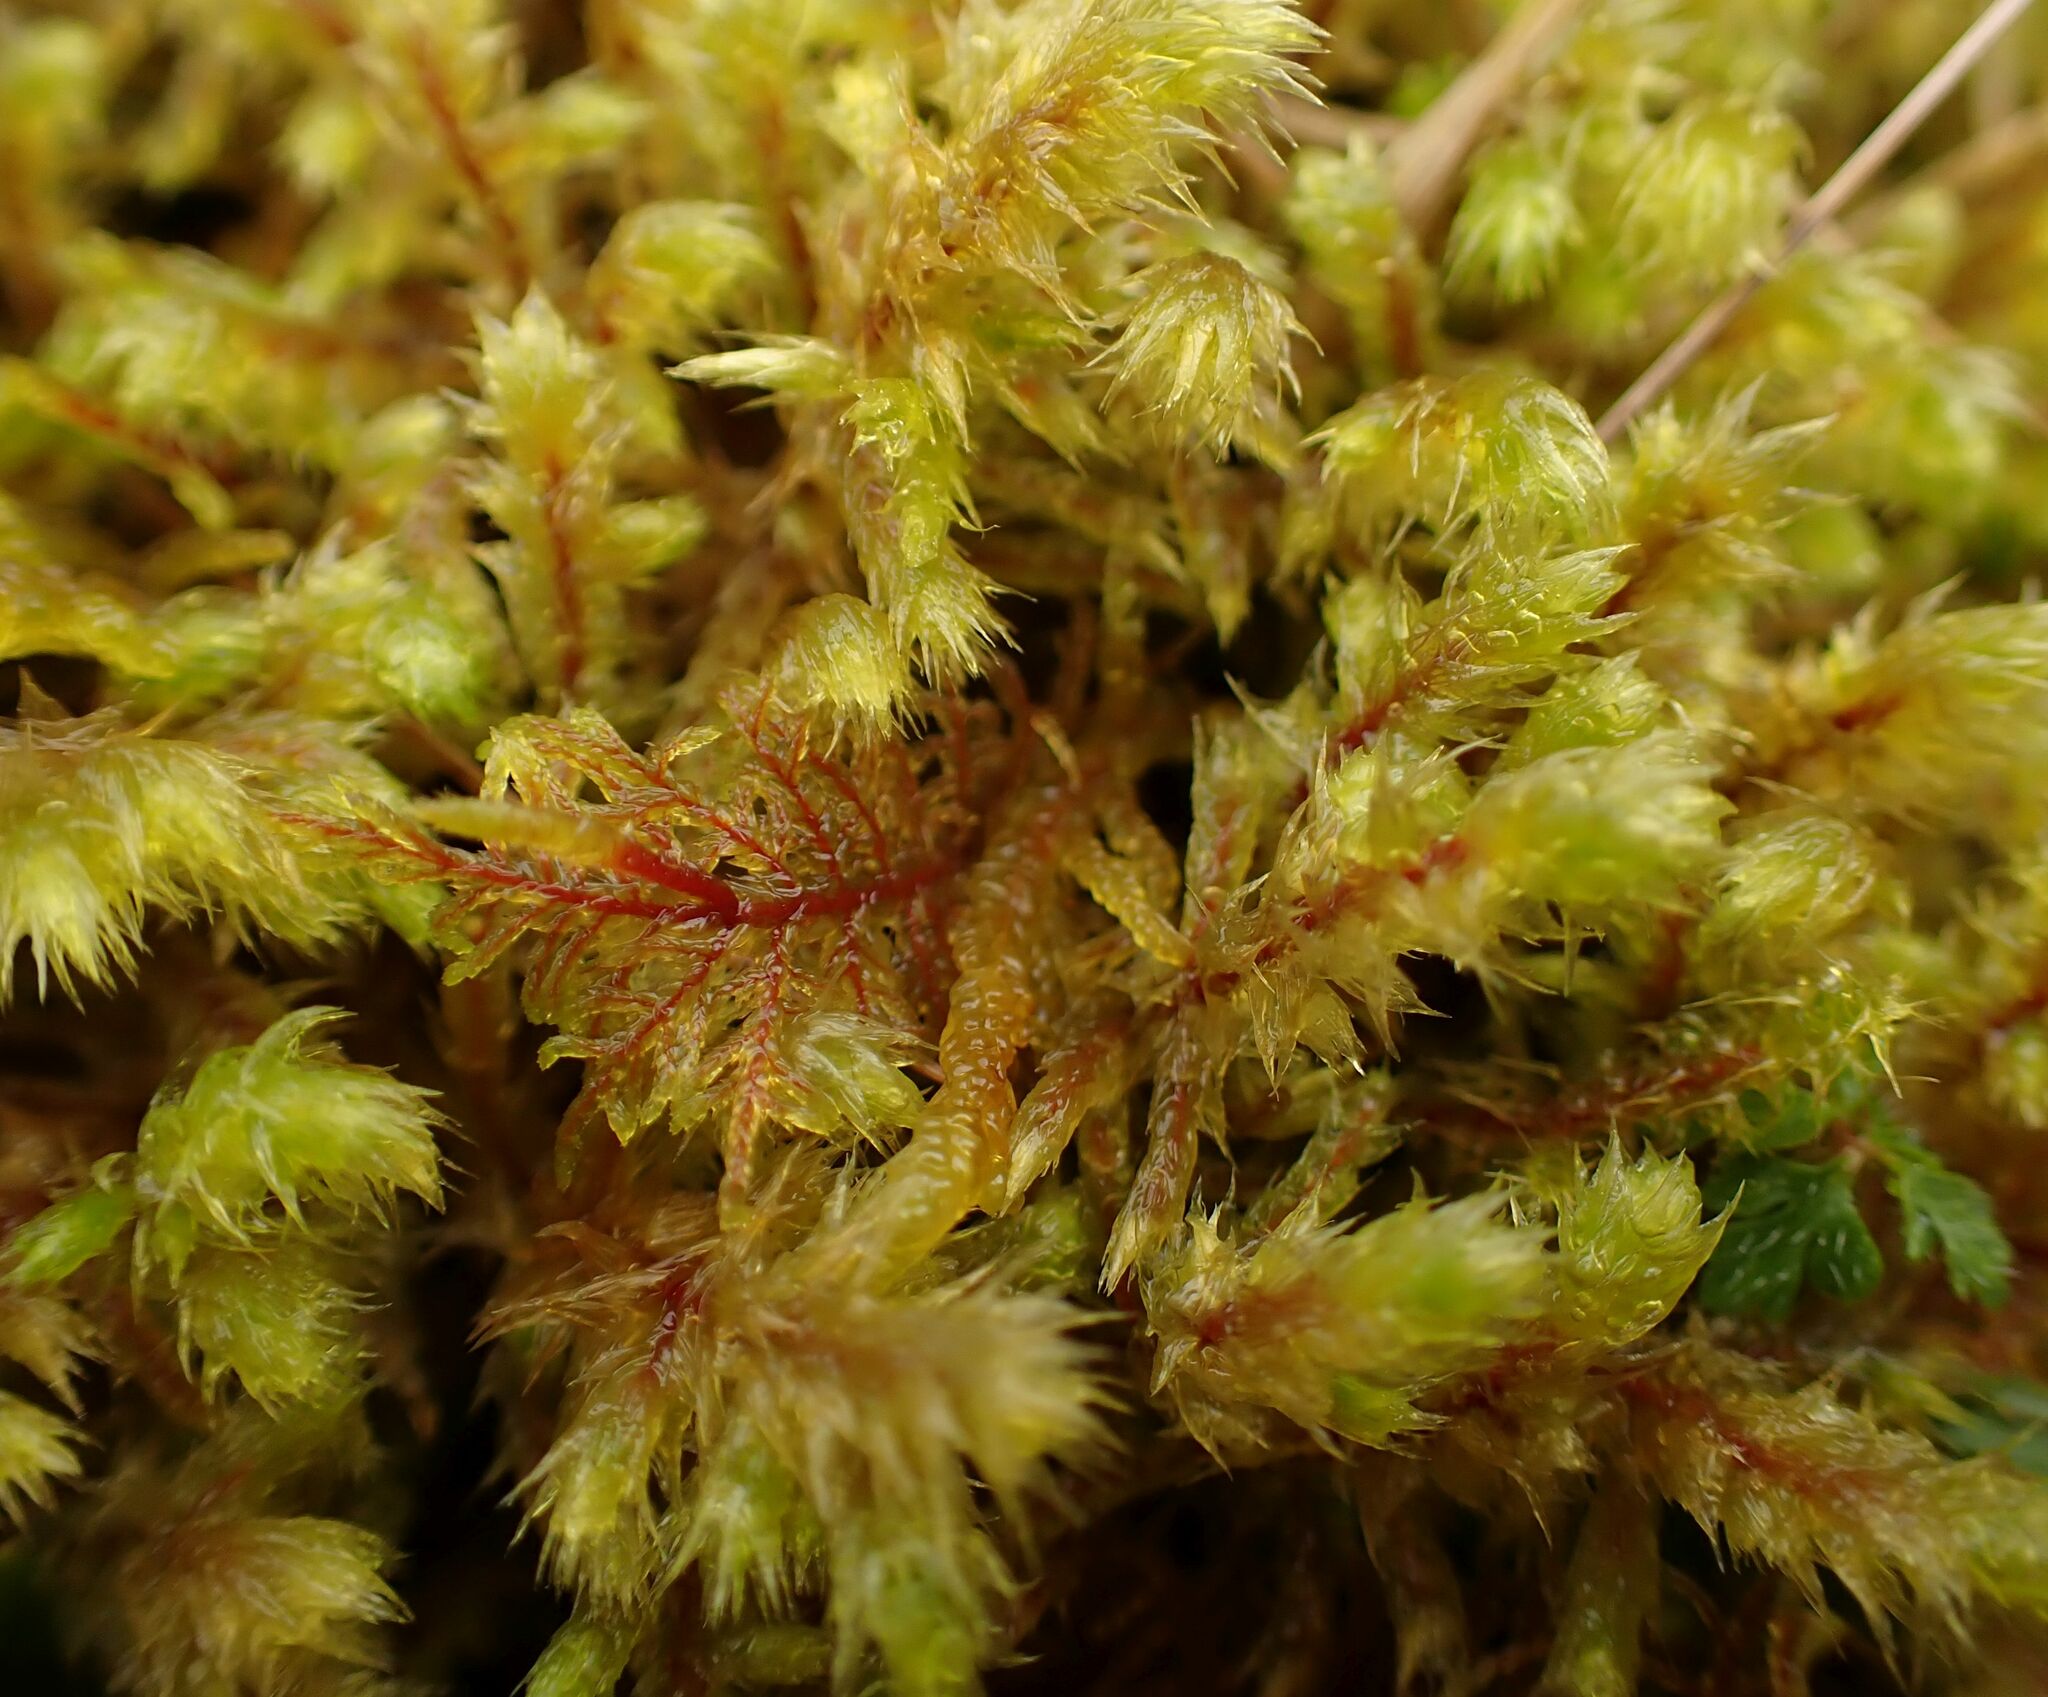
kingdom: Plantae
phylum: Bryophyta
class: Bryopsida
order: Hypnales
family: Hylocomiaceae
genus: Hylocomiadelphus
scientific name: Hylocomiadelphus triquetrus
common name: Rough goose neck moss
